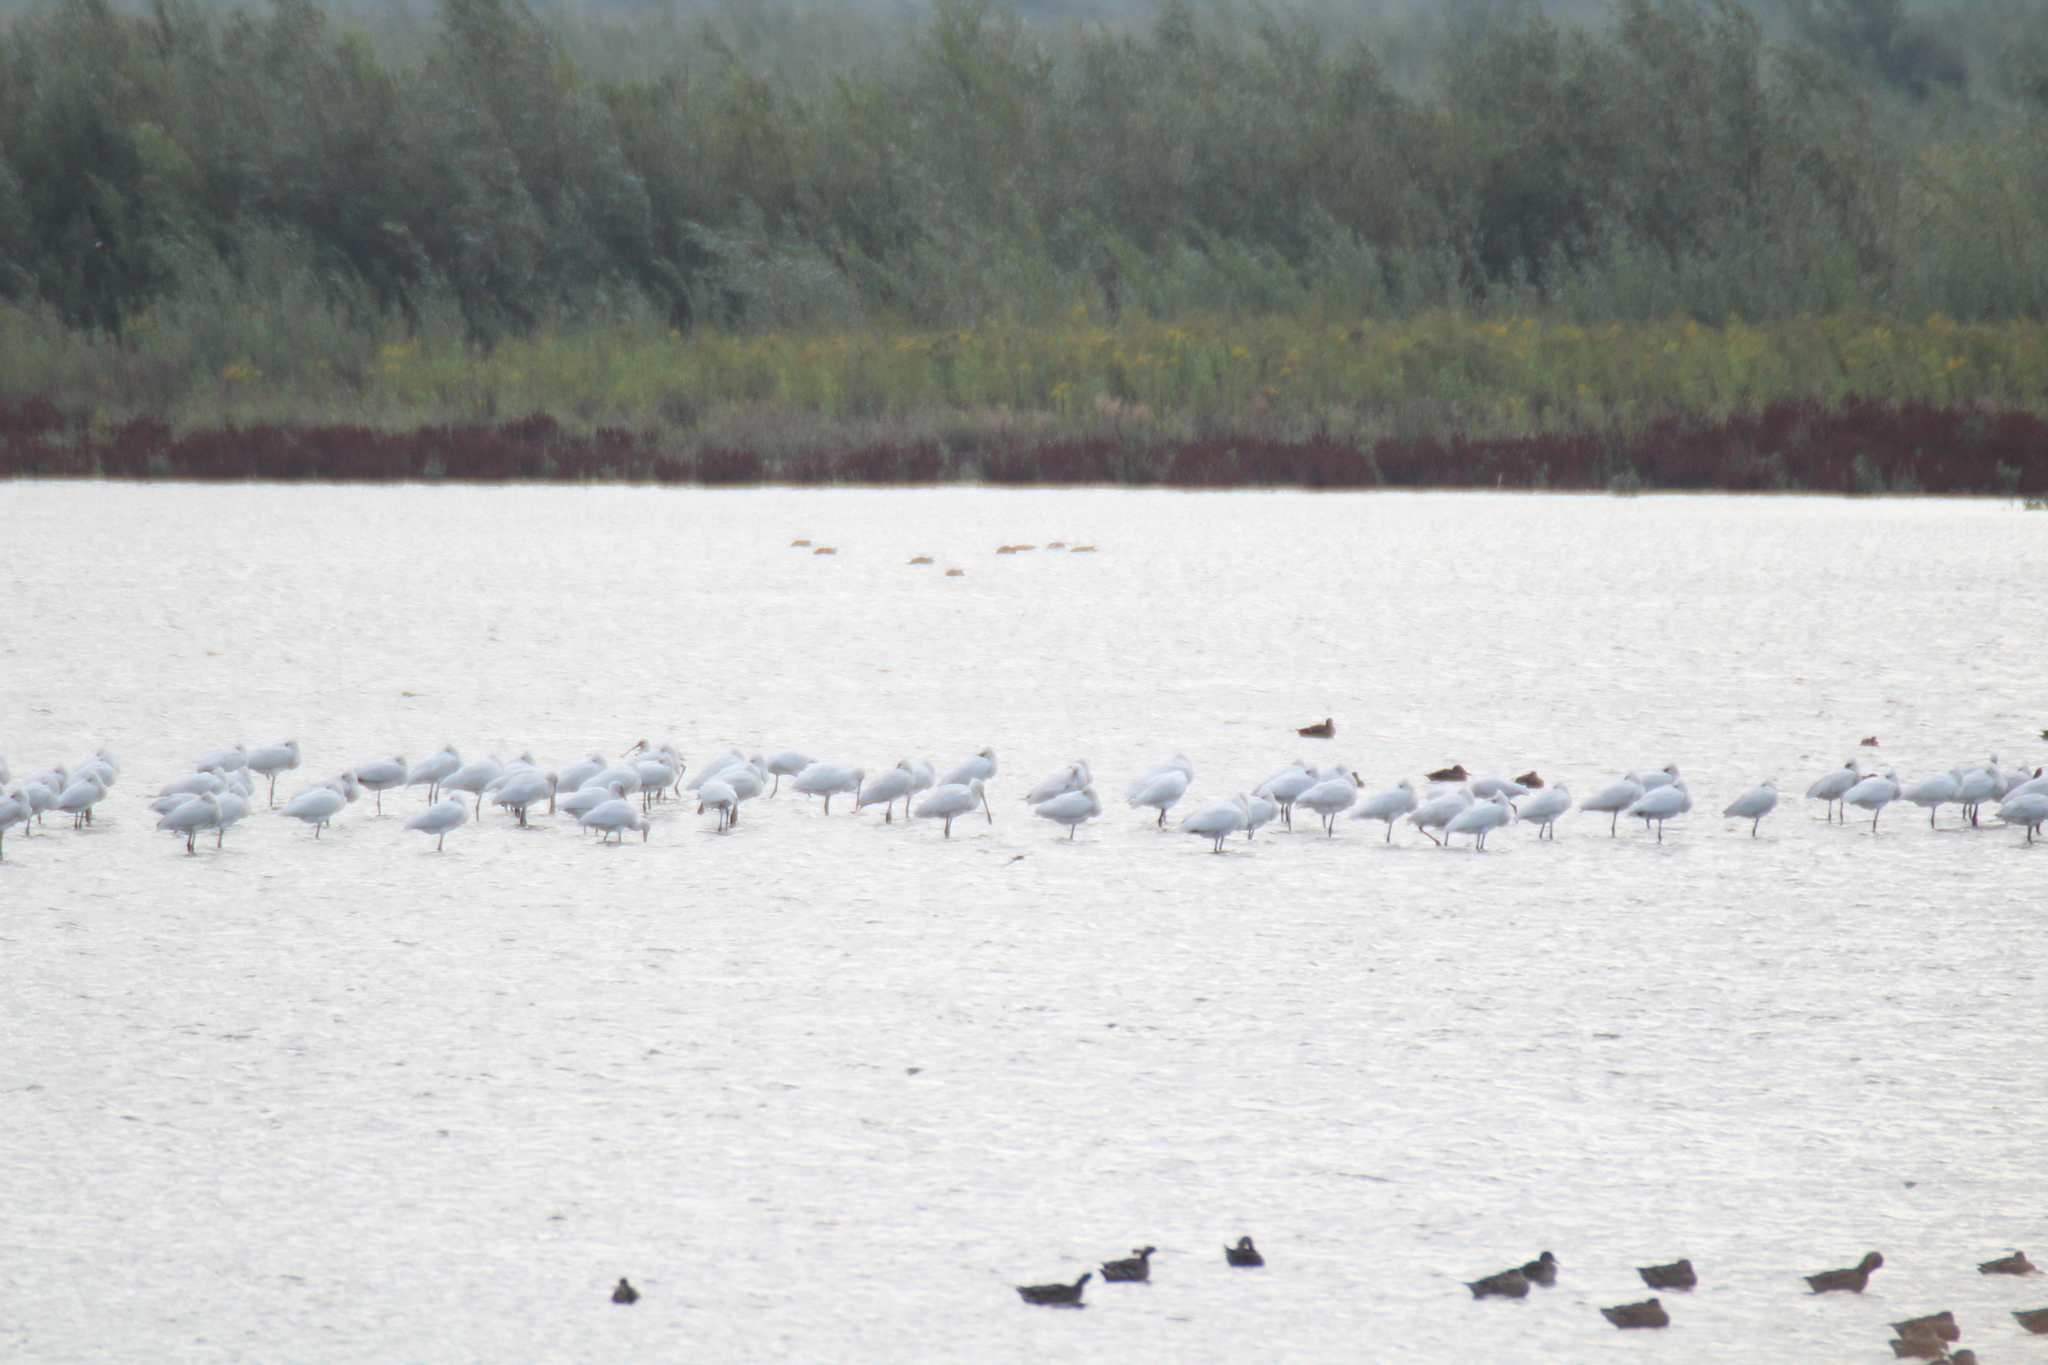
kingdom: Animalia
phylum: Chordata
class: Aves
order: Pelecaniformes
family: Threskiornithidae
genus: Platalea
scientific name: Platalea leucorodia
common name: Eurasian spoonbill
